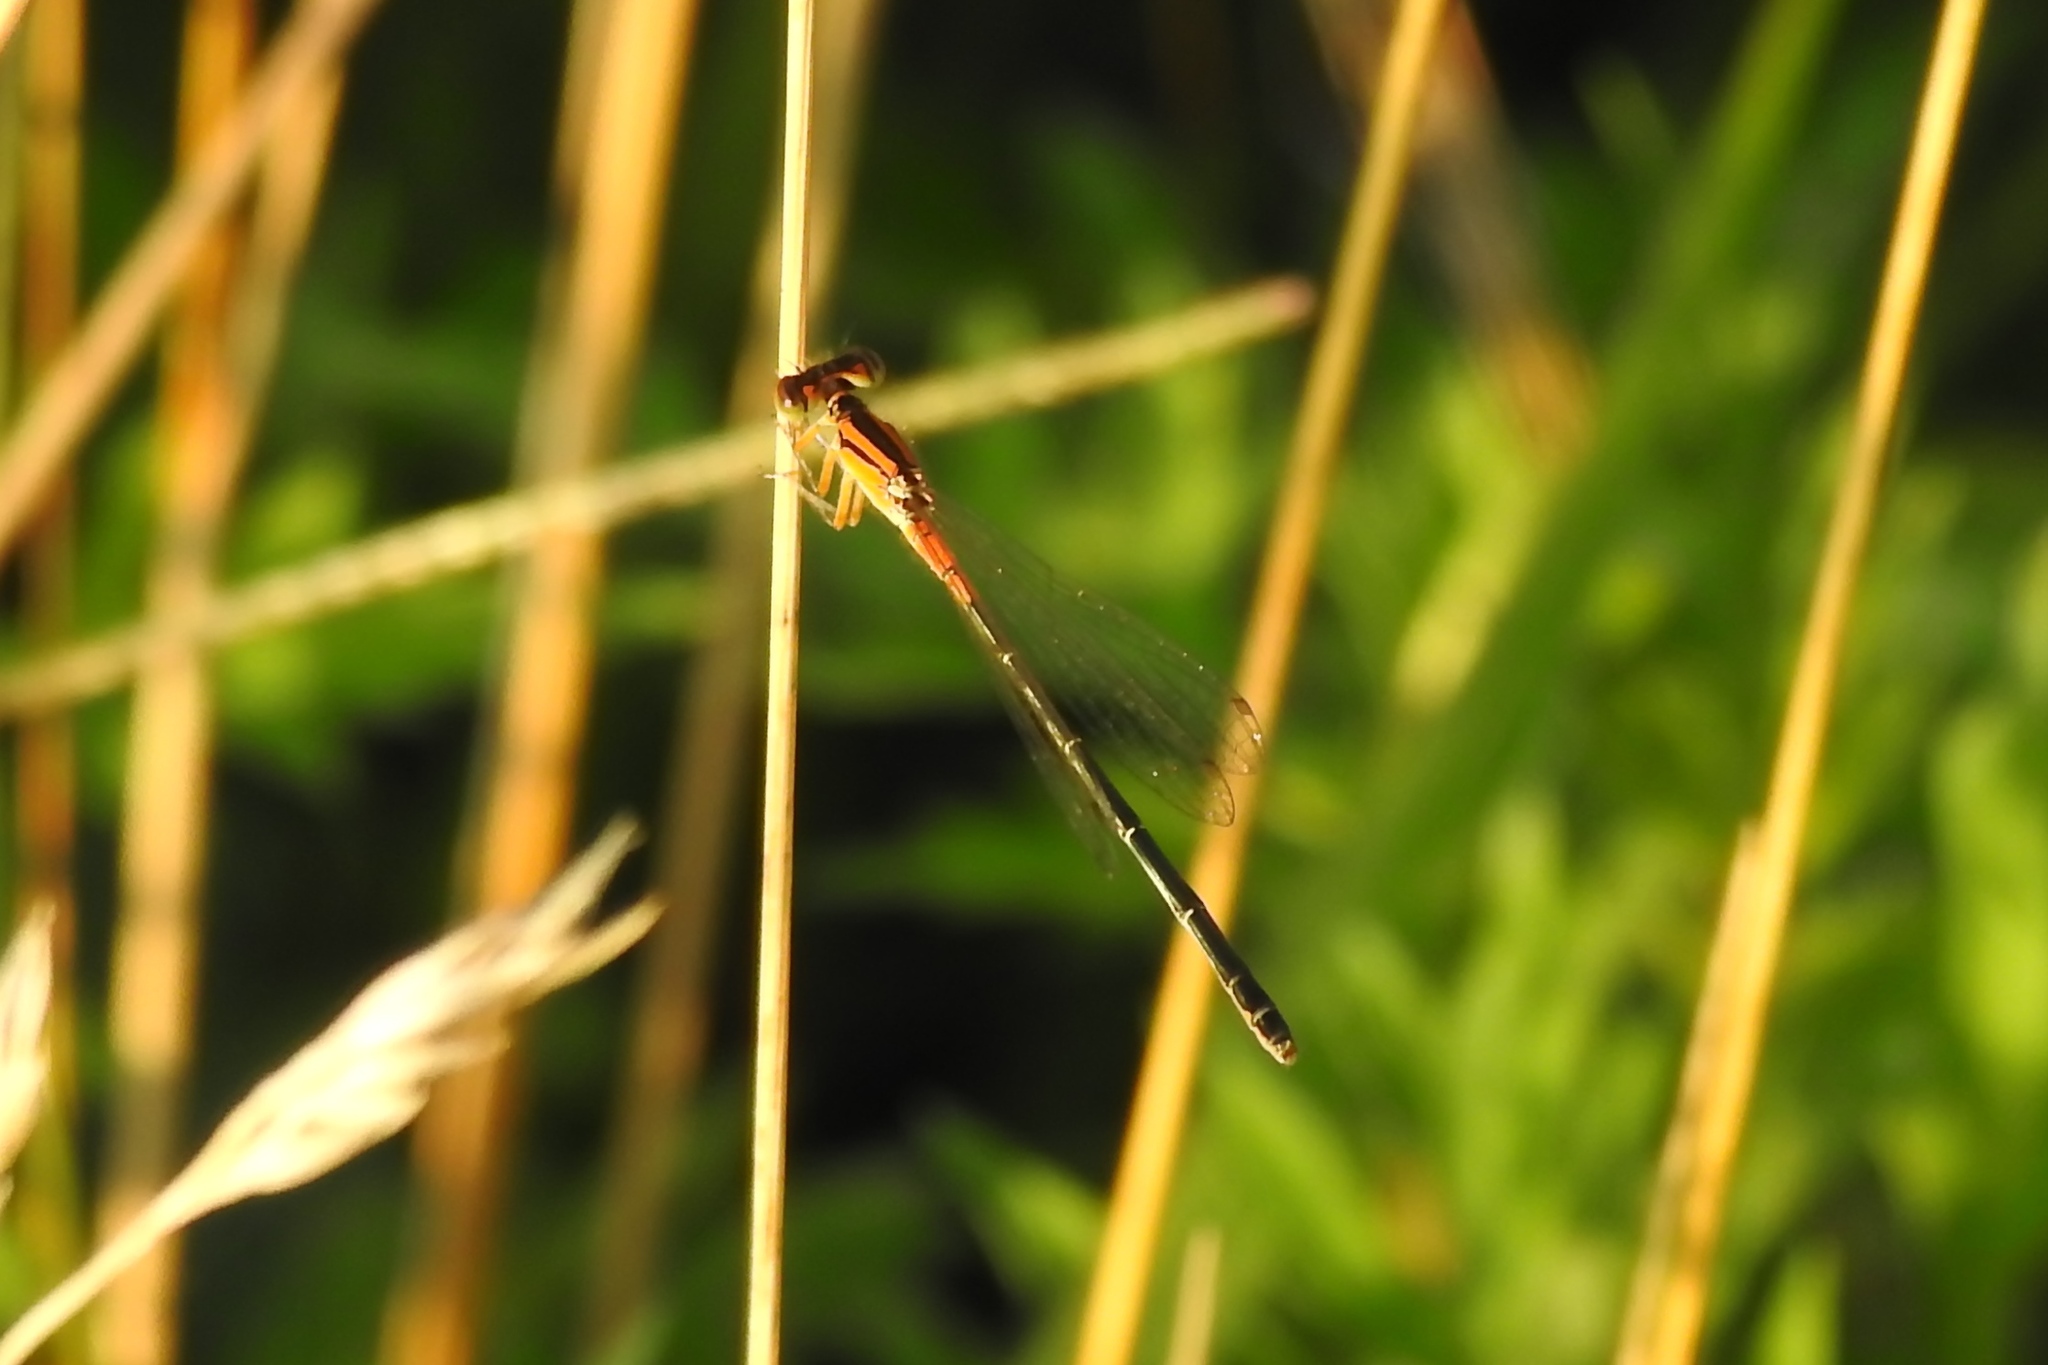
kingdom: Animalia
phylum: Arthropoda
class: Insecta
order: Odonata
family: Coenagrionidae
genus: Ischnura
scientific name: Ischnura verticalis
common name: Eastern forktail
